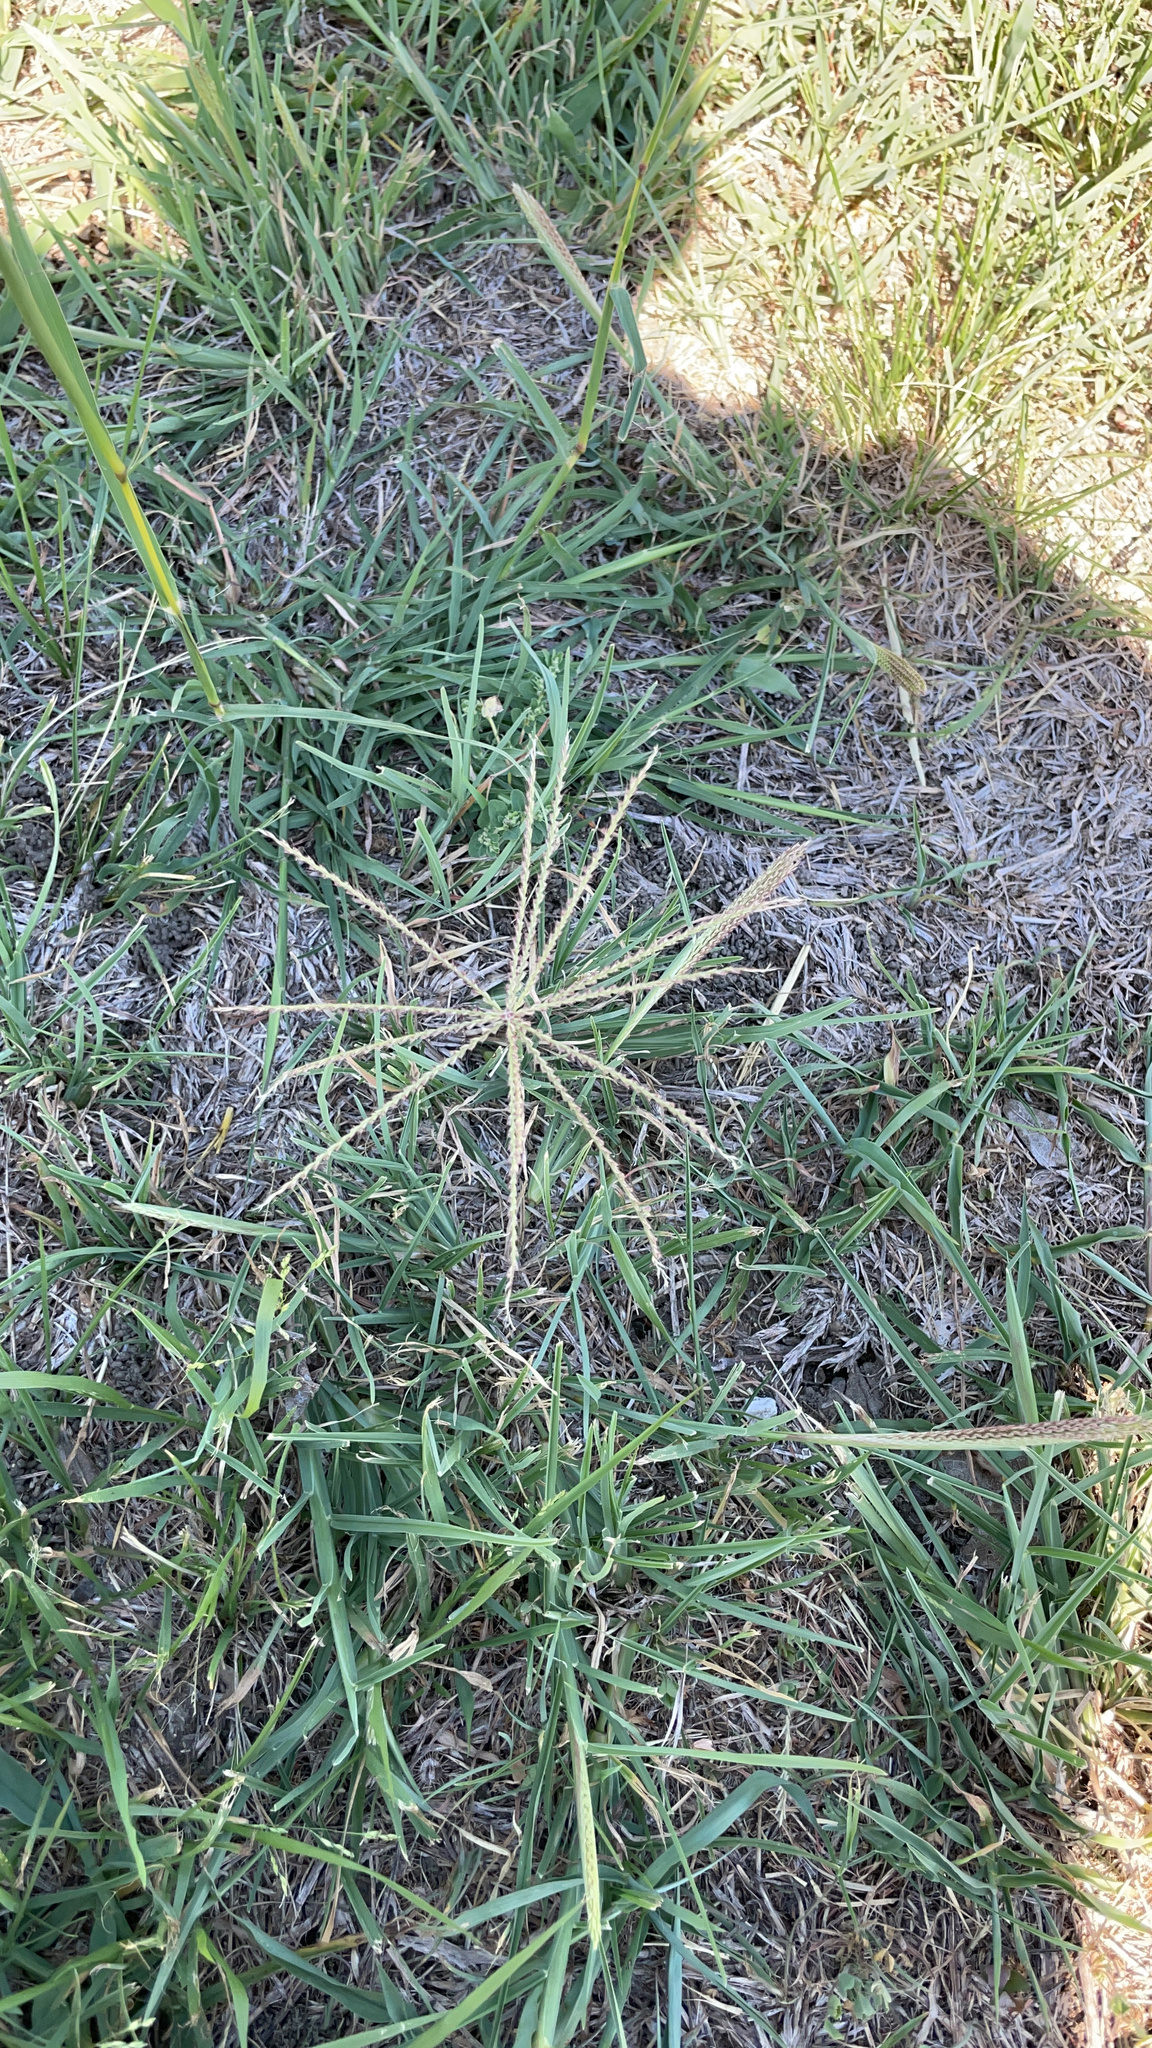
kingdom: Plantae
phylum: Tracheophyta
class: Liliopsida
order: Poales
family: Poaceae
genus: Chloris
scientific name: Chloris verticillata
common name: Tumble windmill grass
